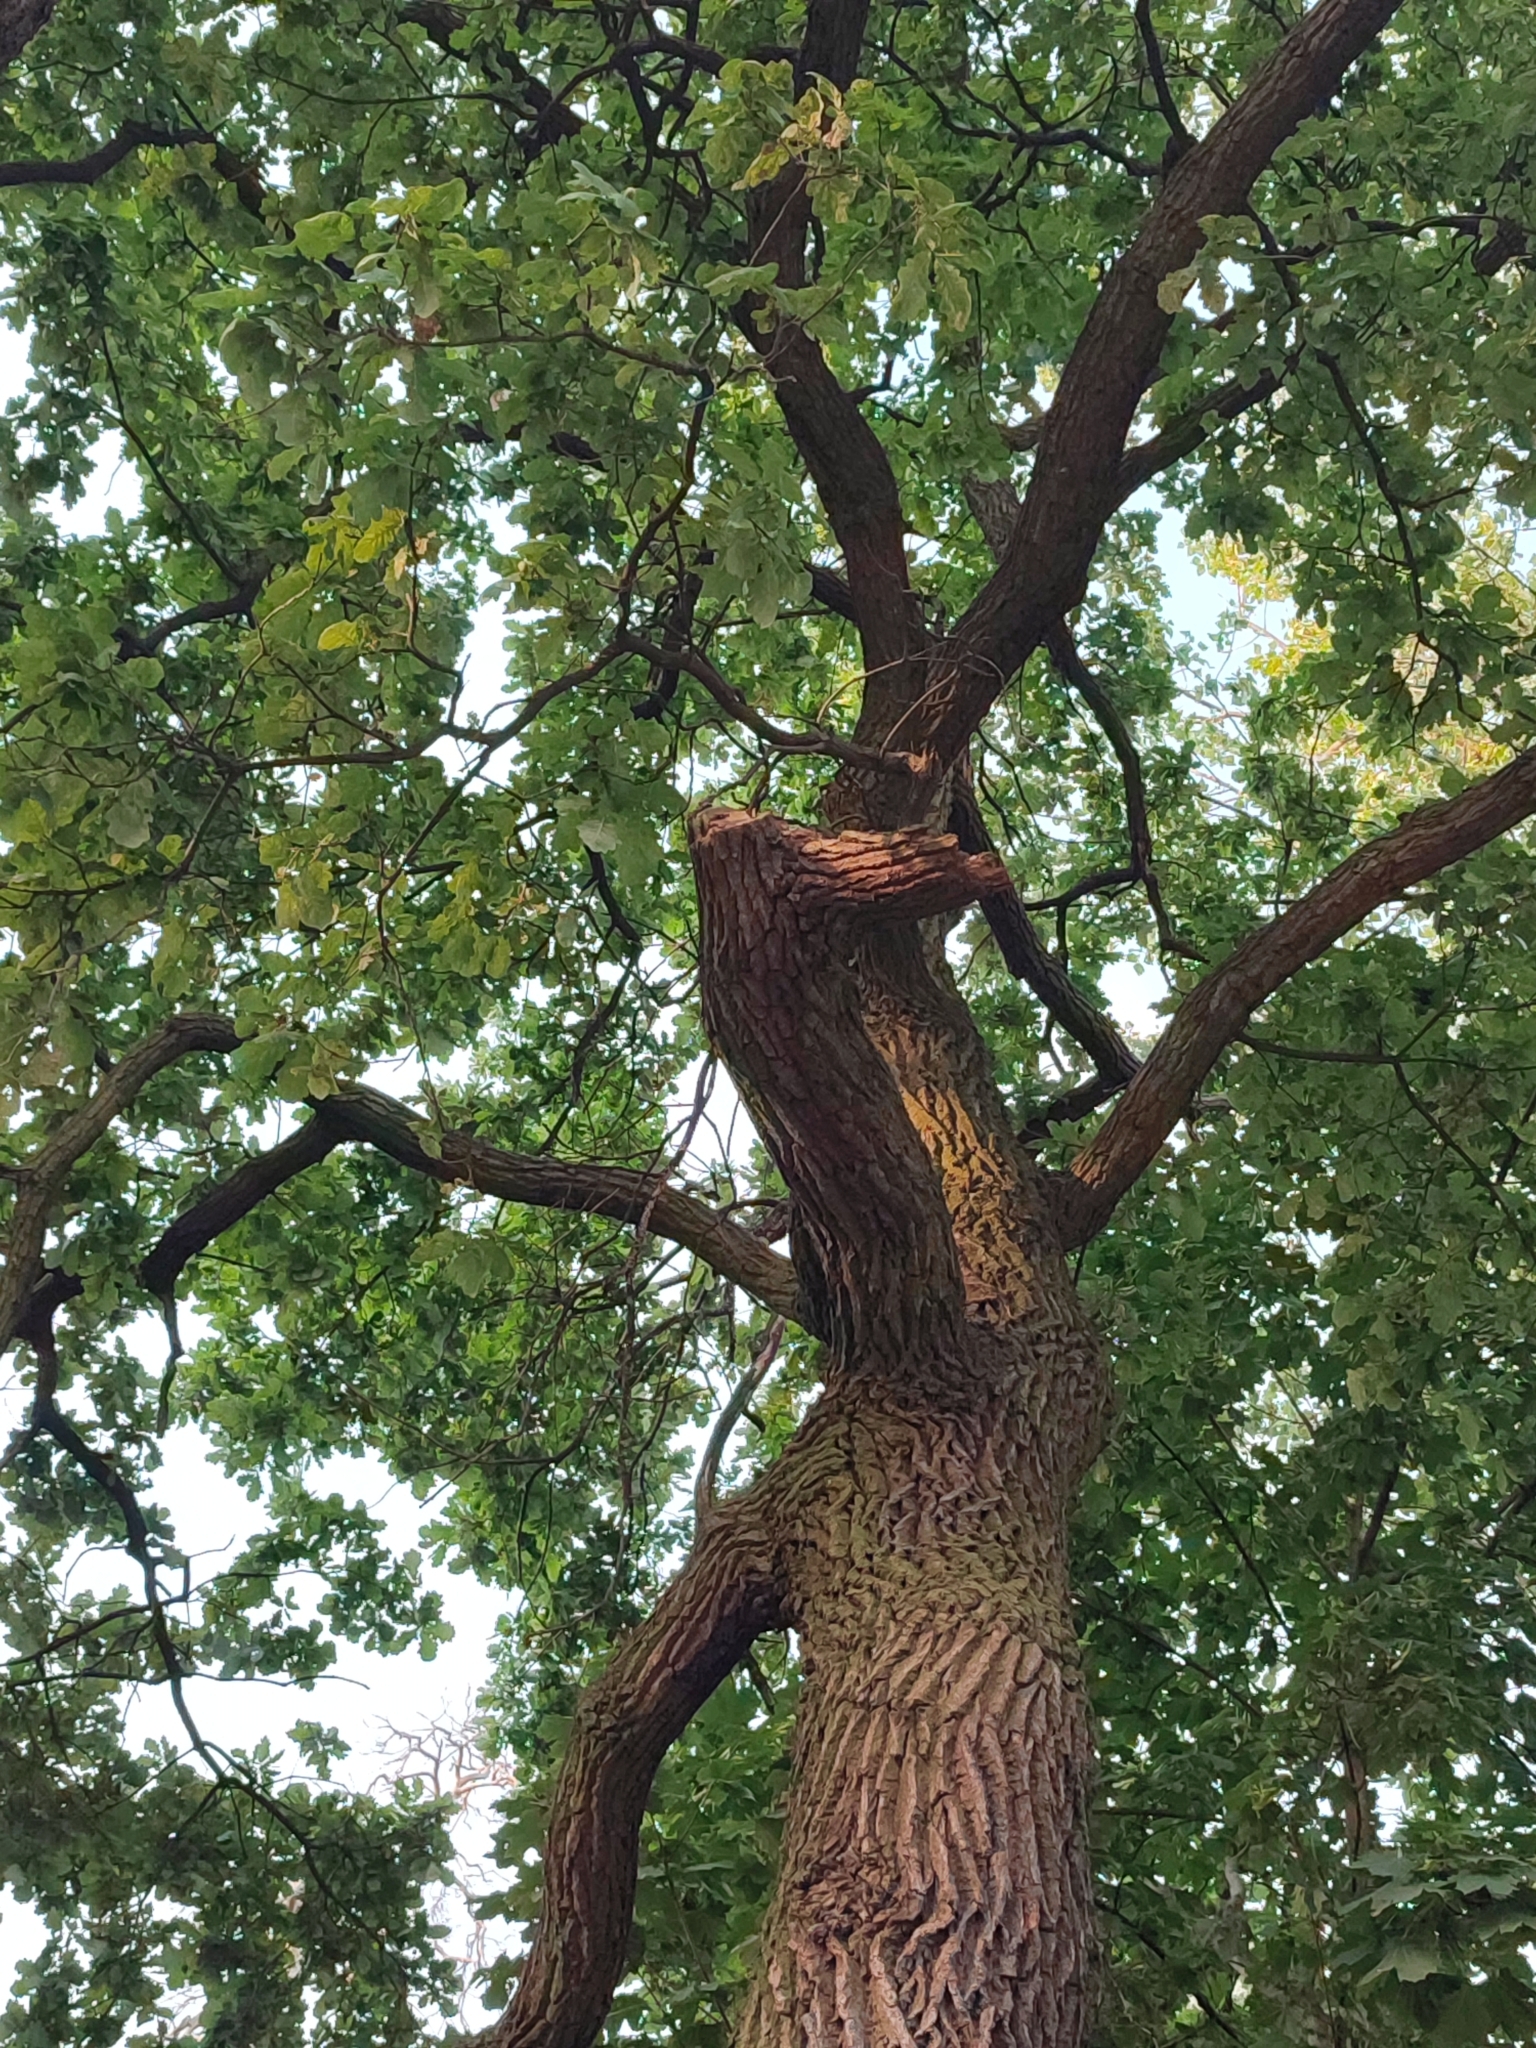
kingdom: Plantae
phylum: Tracheophyta
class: Magnoliopsida
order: Fagales
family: Fagaceae
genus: Quercus
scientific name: Quercus robur
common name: Pedunculate oak
